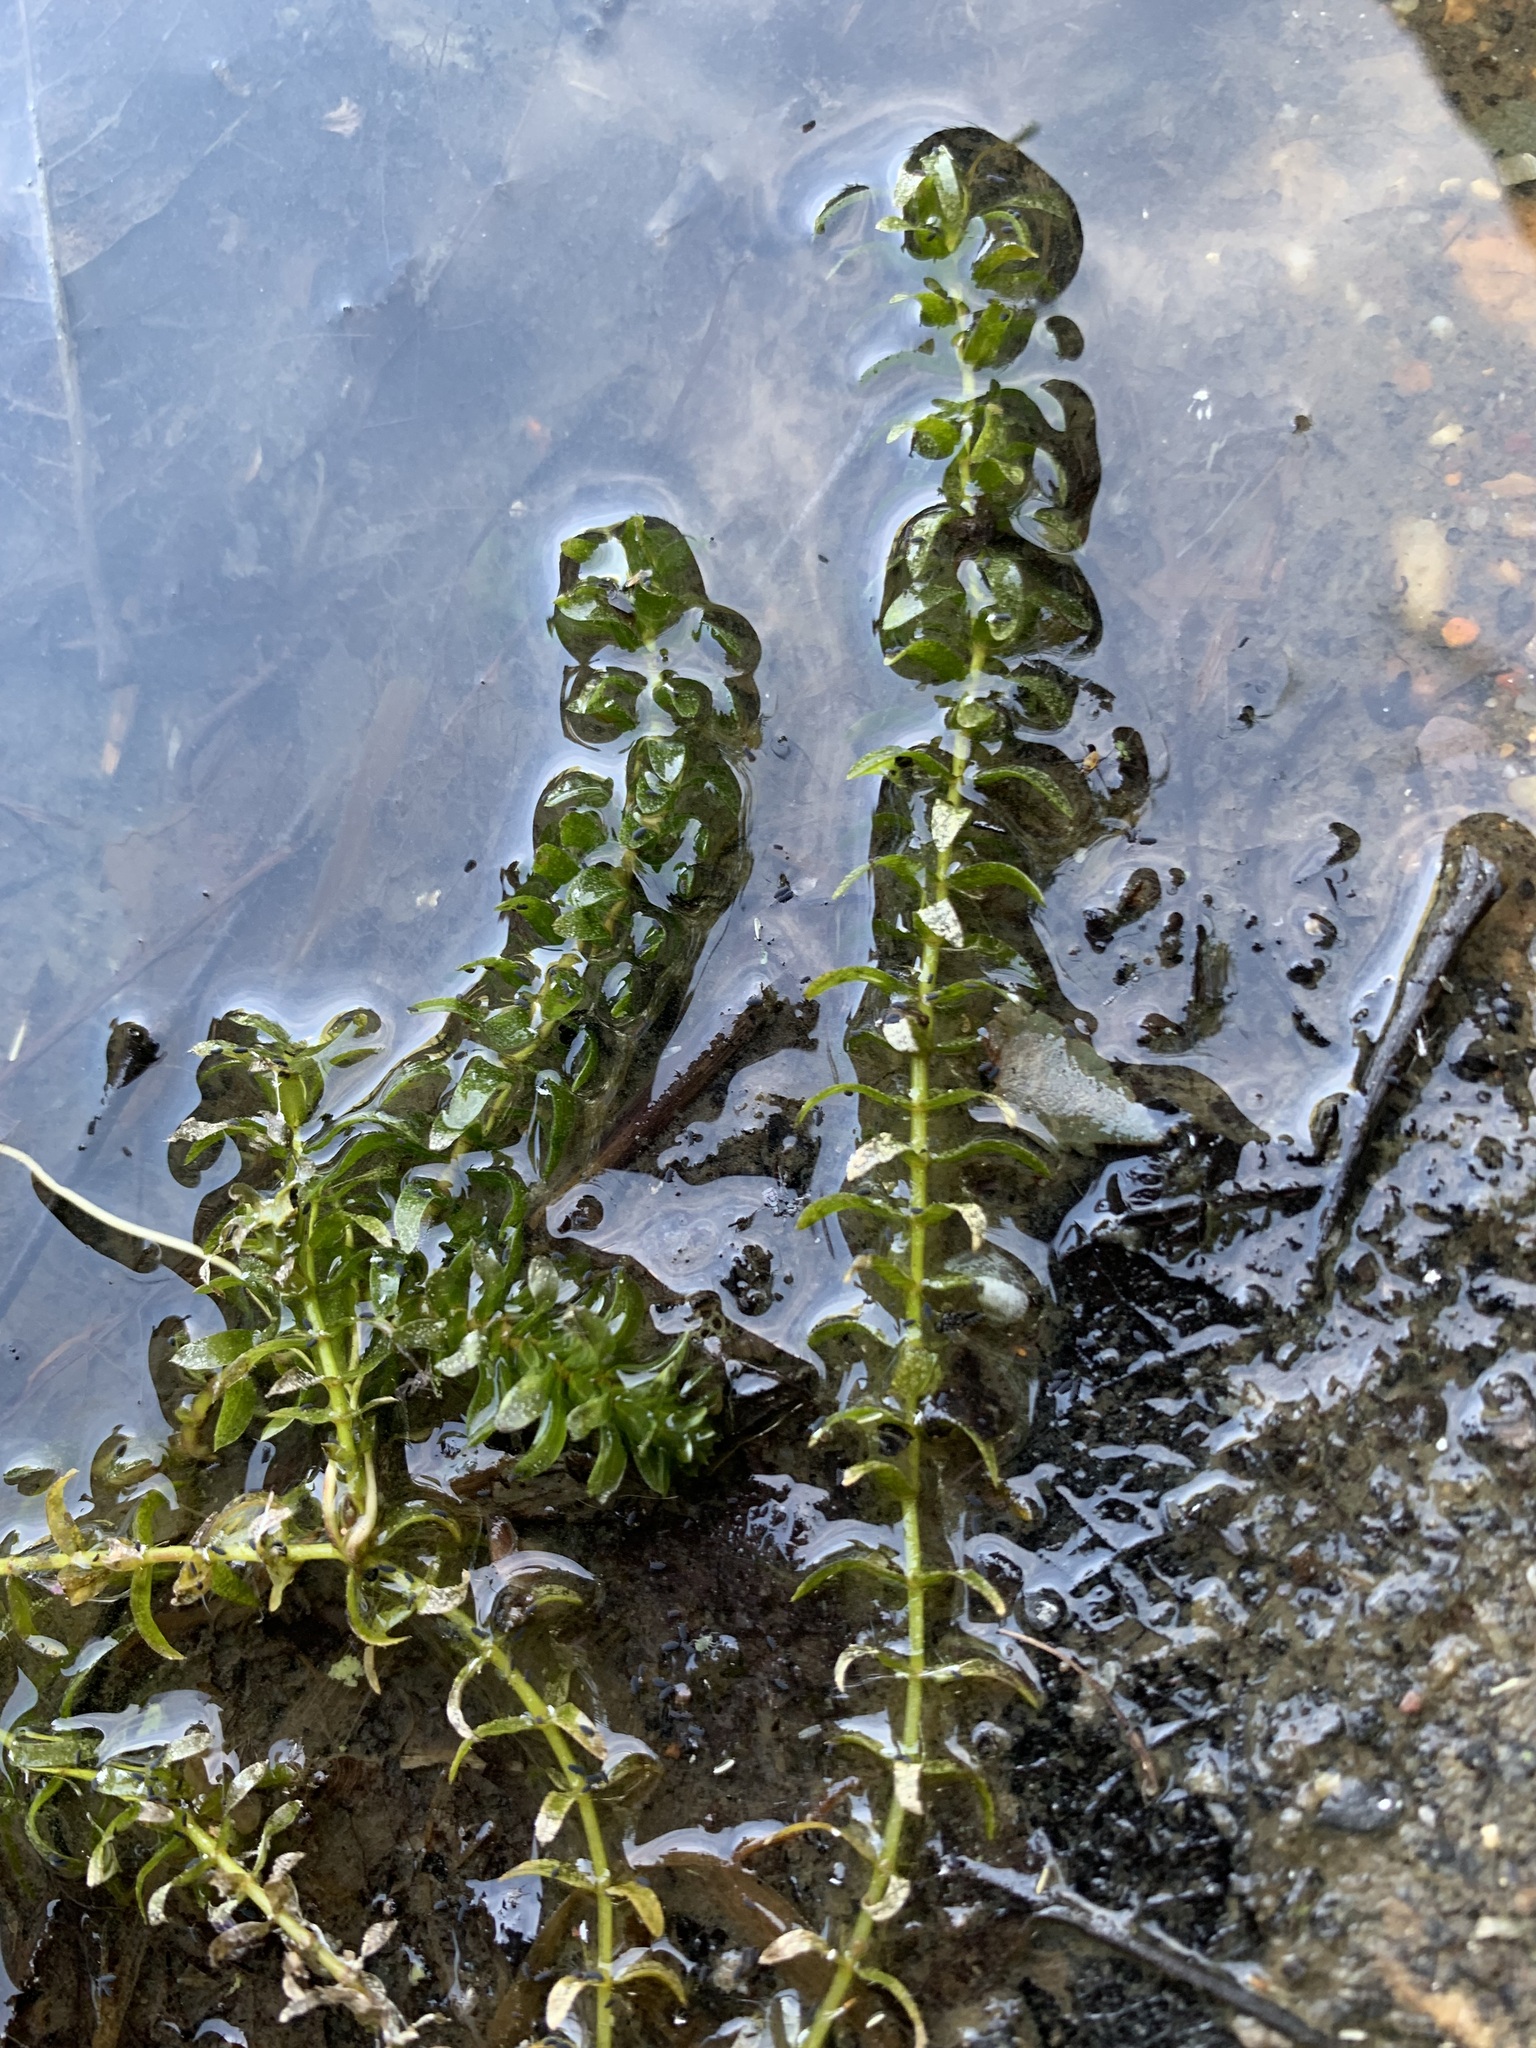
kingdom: Plantae
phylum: Tracheophyta
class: Liliopsida
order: Alismatales
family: Hydrocharitaceae
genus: Elodea
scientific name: Elodea canadensis
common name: Canadian waterweed
